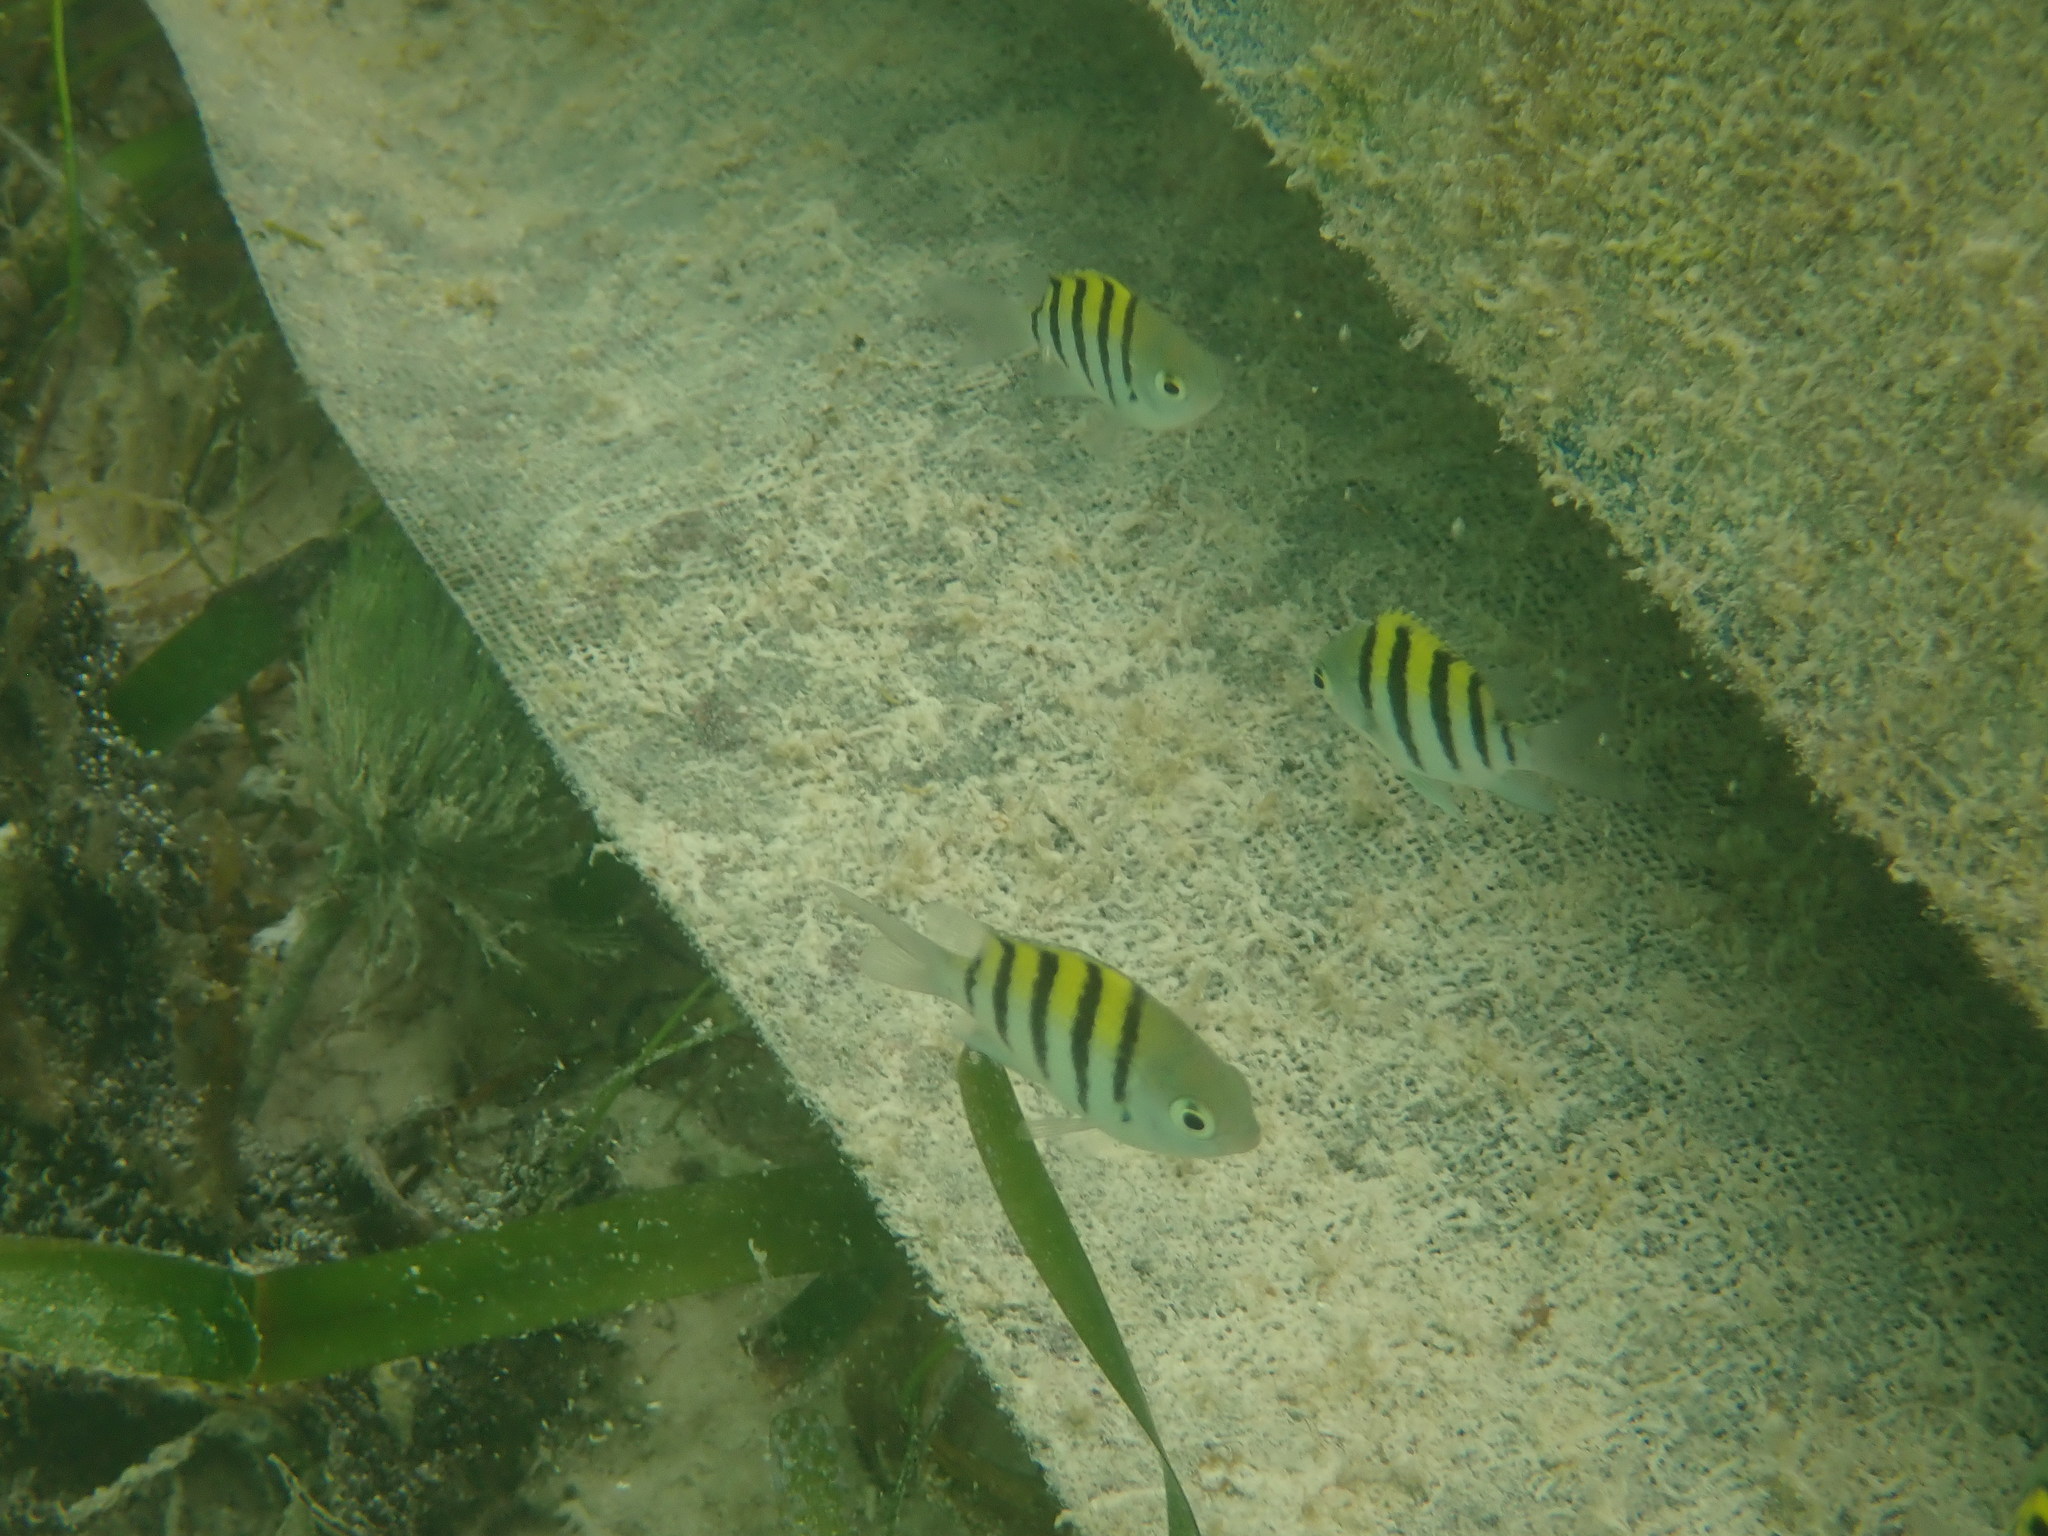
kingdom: Animalia
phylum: Chordata
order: Perciformes
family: Pomacentridae
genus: Abudefduf
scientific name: Abudefduf saxatilis
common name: Sergeant major
